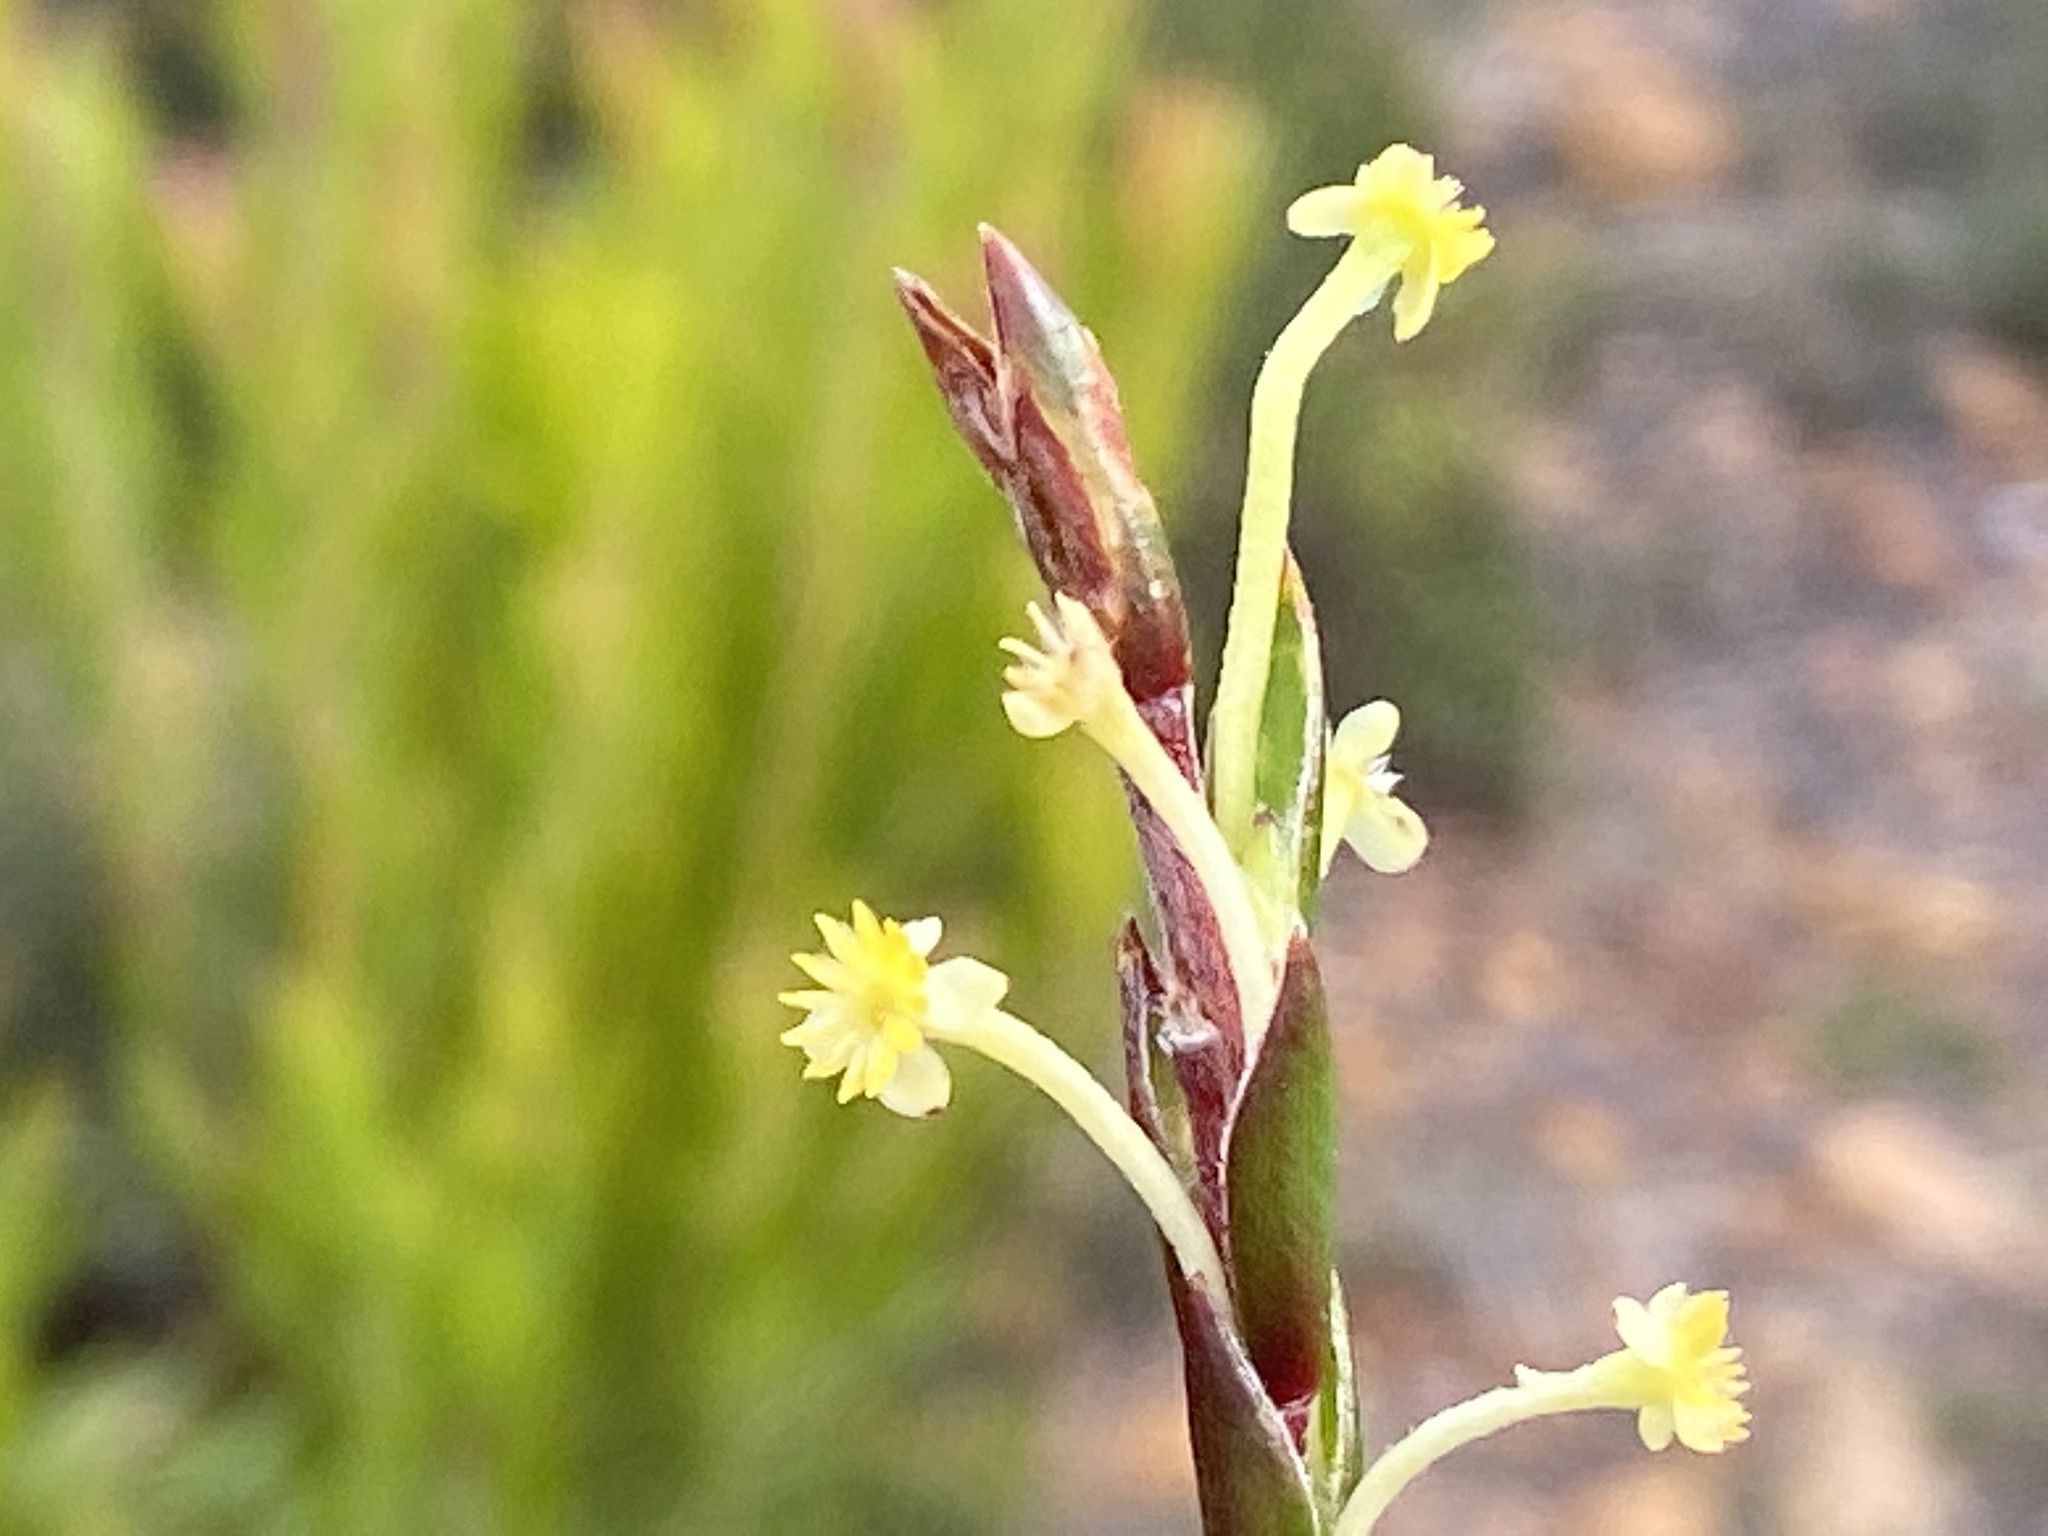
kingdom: Plantae
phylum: Tracheophyta
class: Magnoliopsida
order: Malvales
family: Thymelaeaceae
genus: Struthiola
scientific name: Struthiola ciliata
